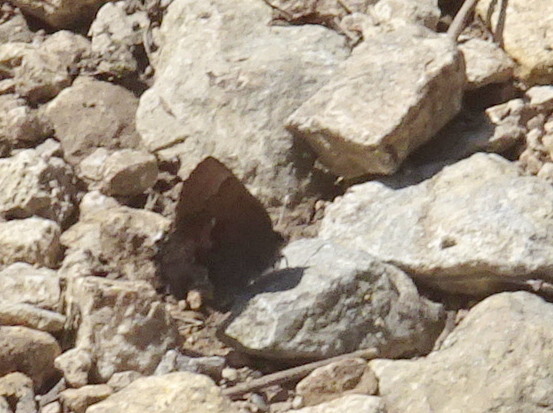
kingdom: Animalia
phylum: Arthropoda
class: Insecta
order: Lepidoptera
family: Lycaenidae
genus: Incisalia
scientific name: Incisalia henrici
